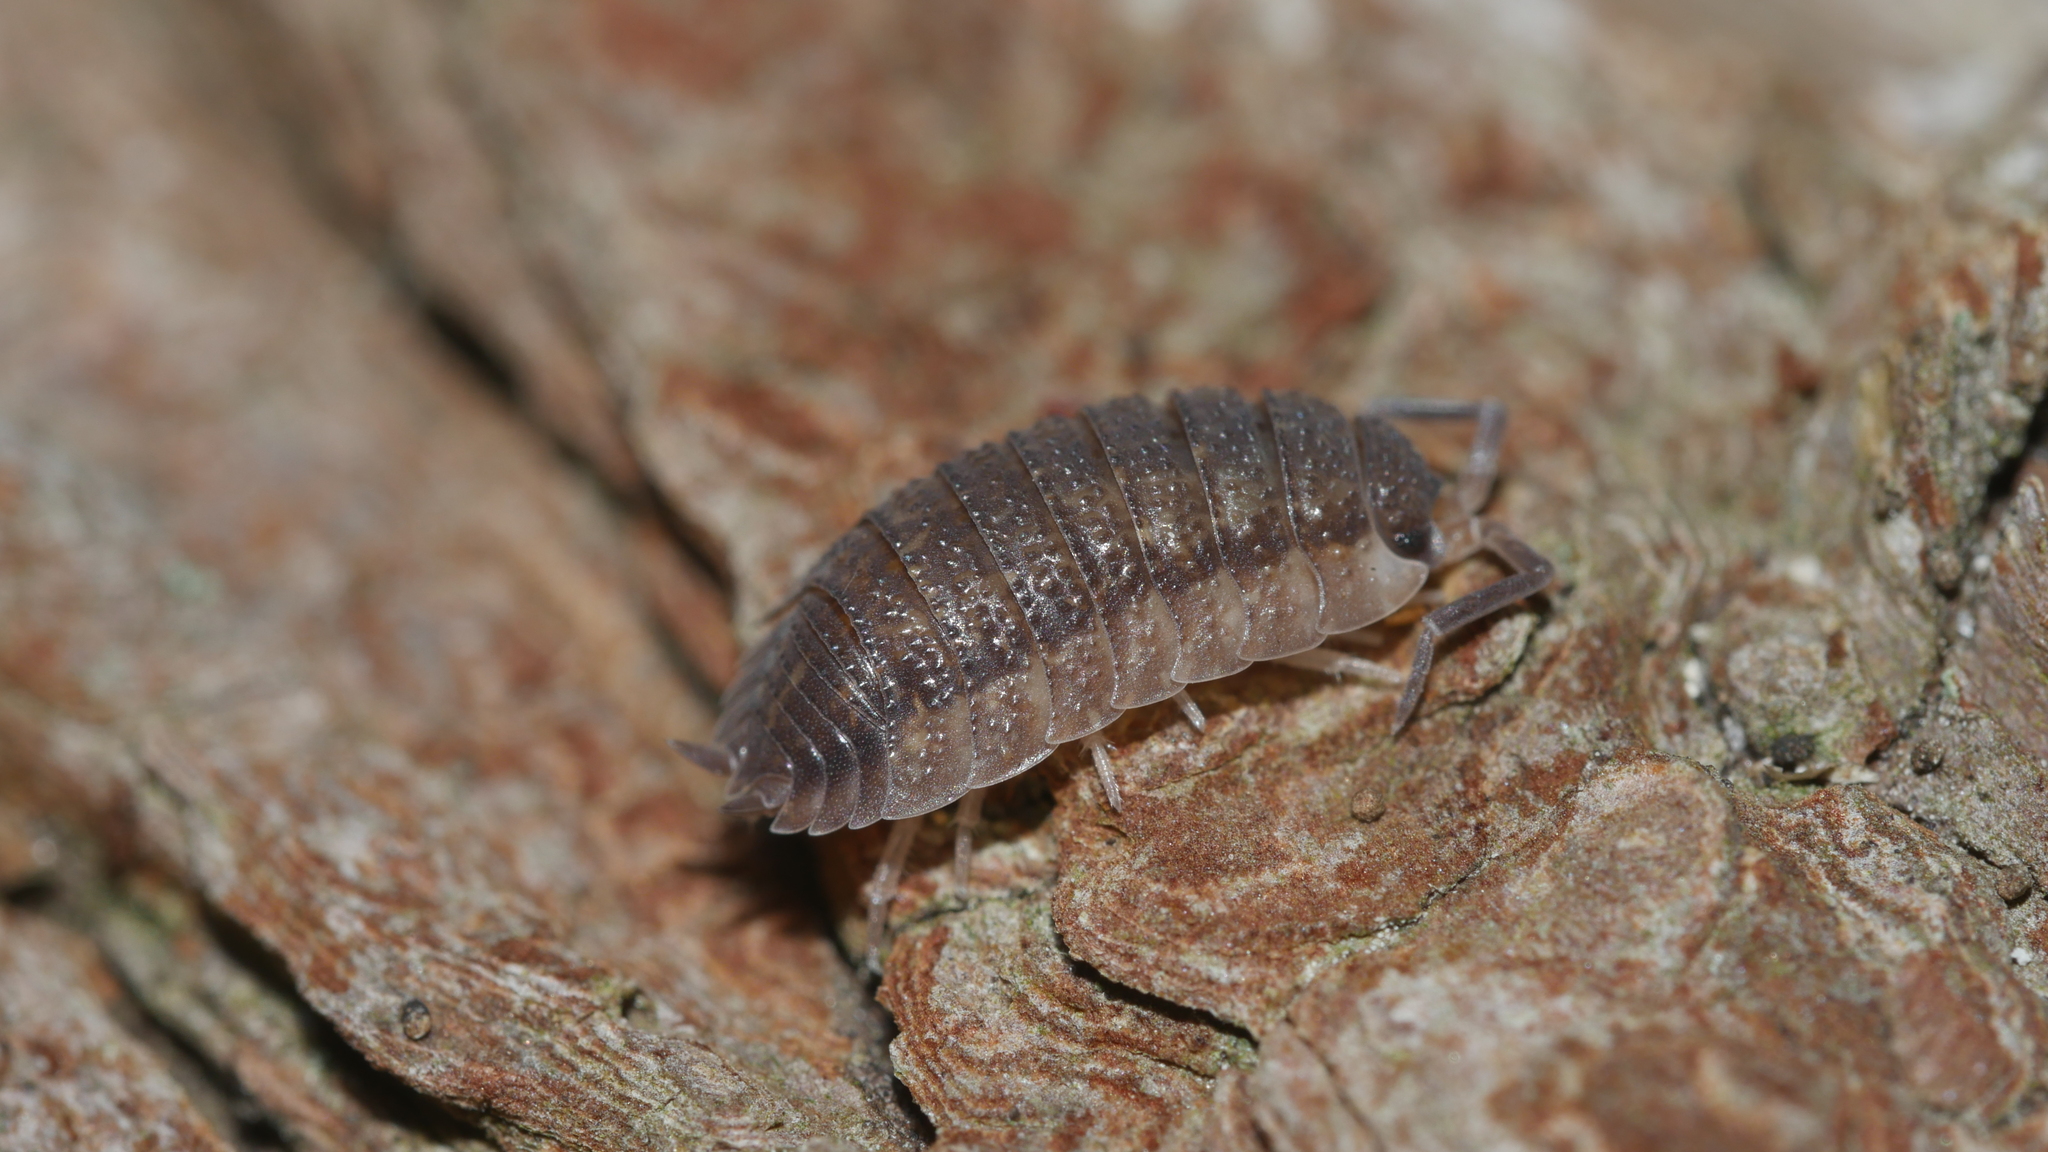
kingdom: Animalia
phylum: Arthropoda
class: Malacostraca
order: Isopoda
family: Porcellionidae
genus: Porcellio
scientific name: Porcellio scaber
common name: Common rough woodlouse
